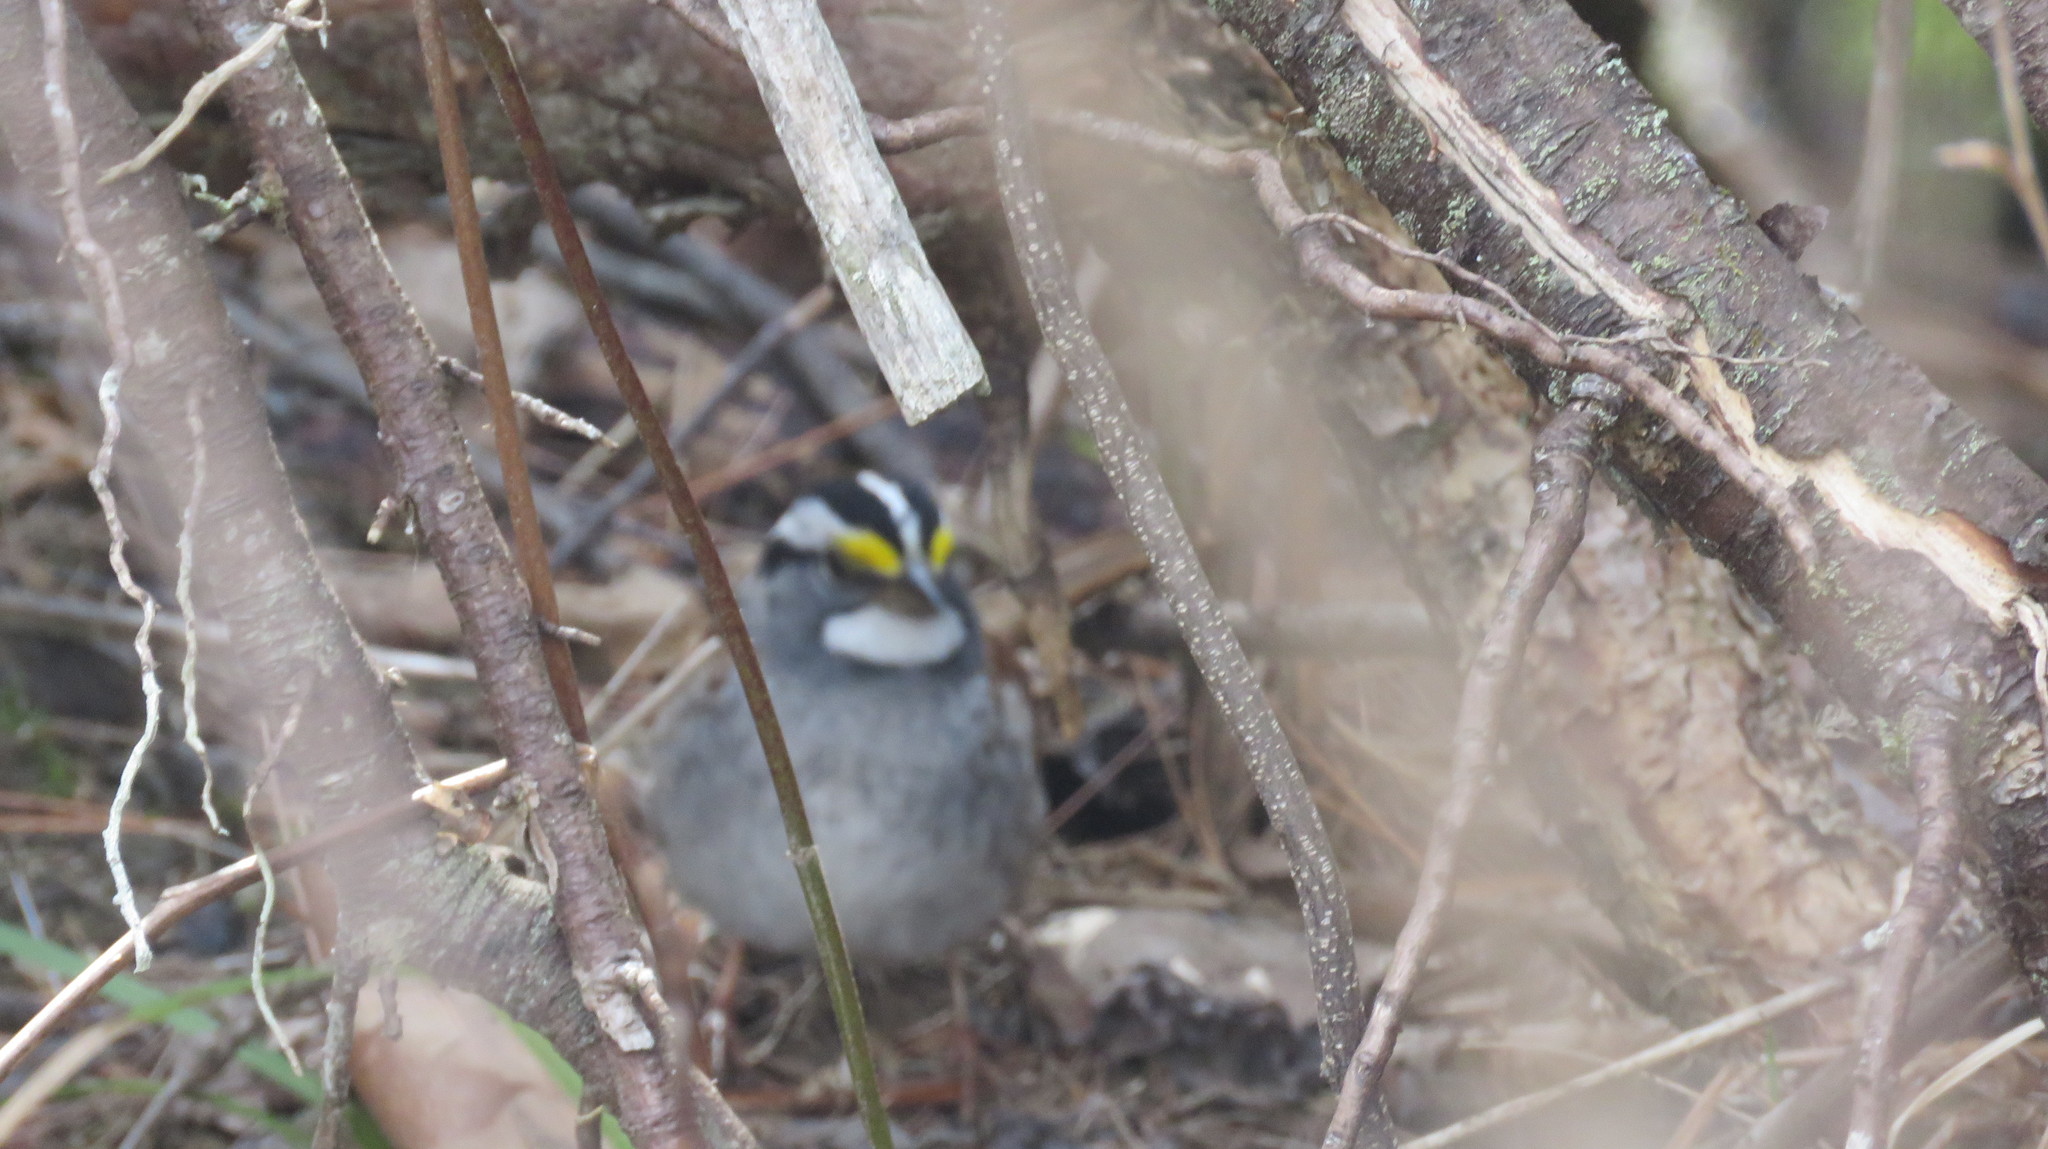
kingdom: Animalia
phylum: Chordata
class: Aves
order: Passeriformes
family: Passerellidae
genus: Zonotrichia
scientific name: Zonotrichia albicollis
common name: White-throated sparrow
